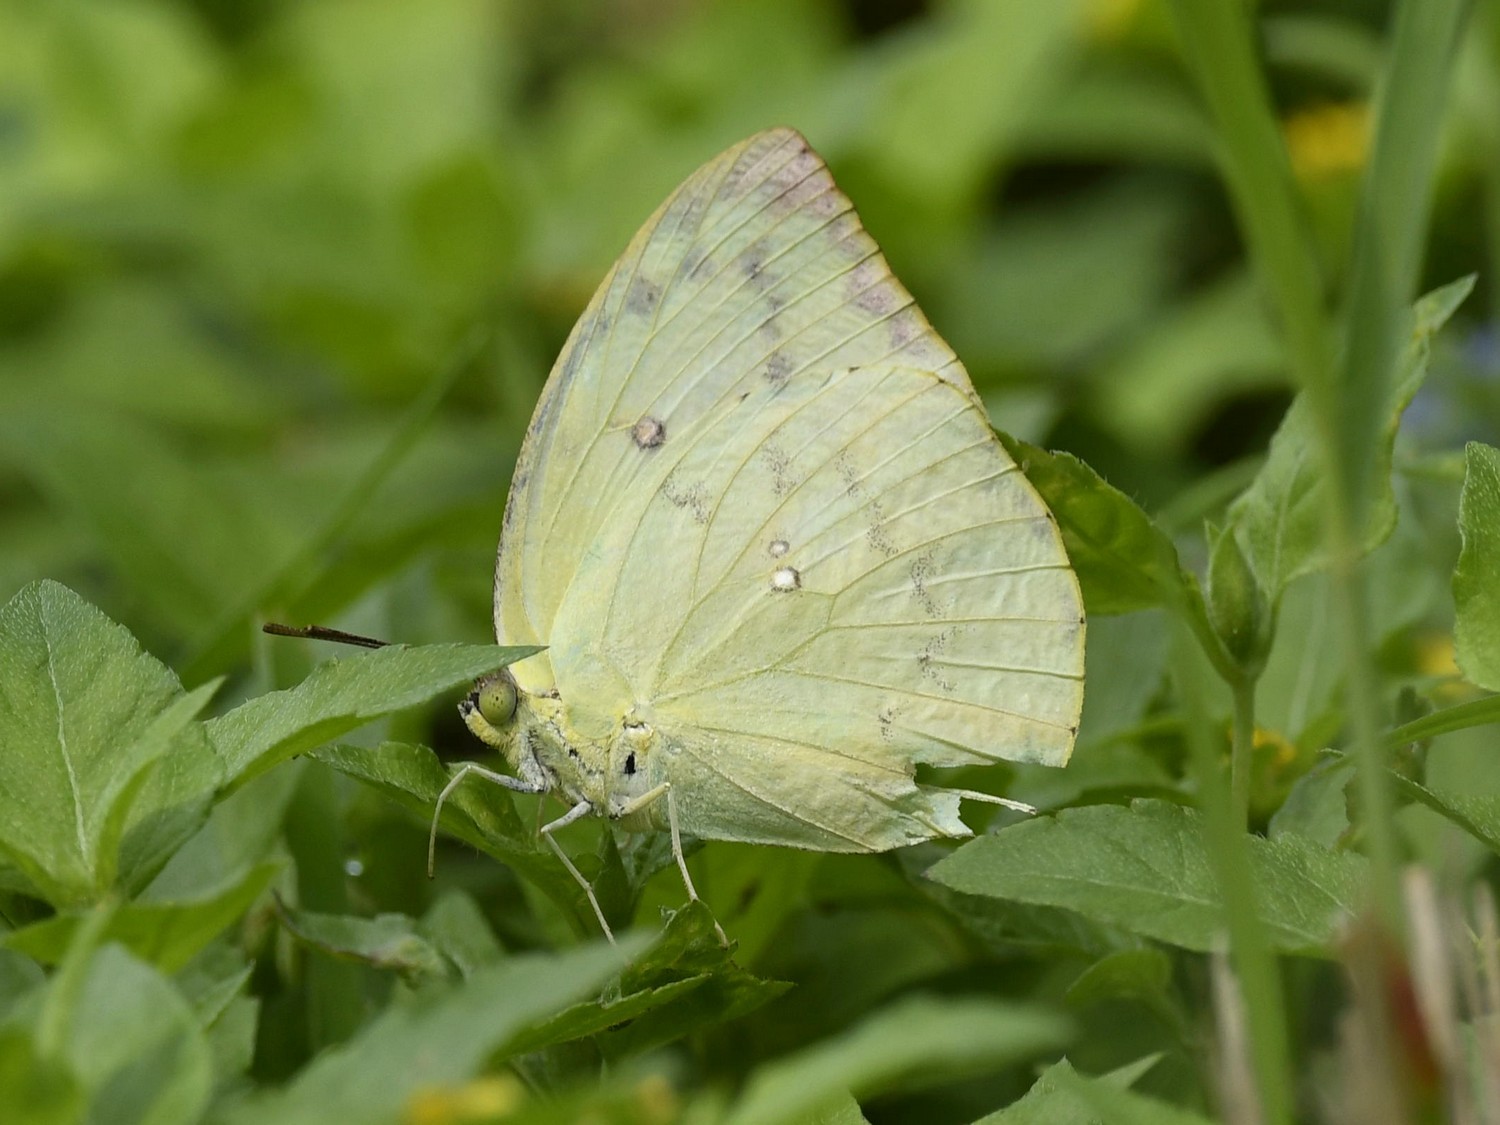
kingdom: Animalia
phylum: Arthropoda
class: Insecta
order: Lepidoptera
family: Pieridae
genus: Catopsilia
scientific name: Catopsilia pomona
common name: Common emigrant
